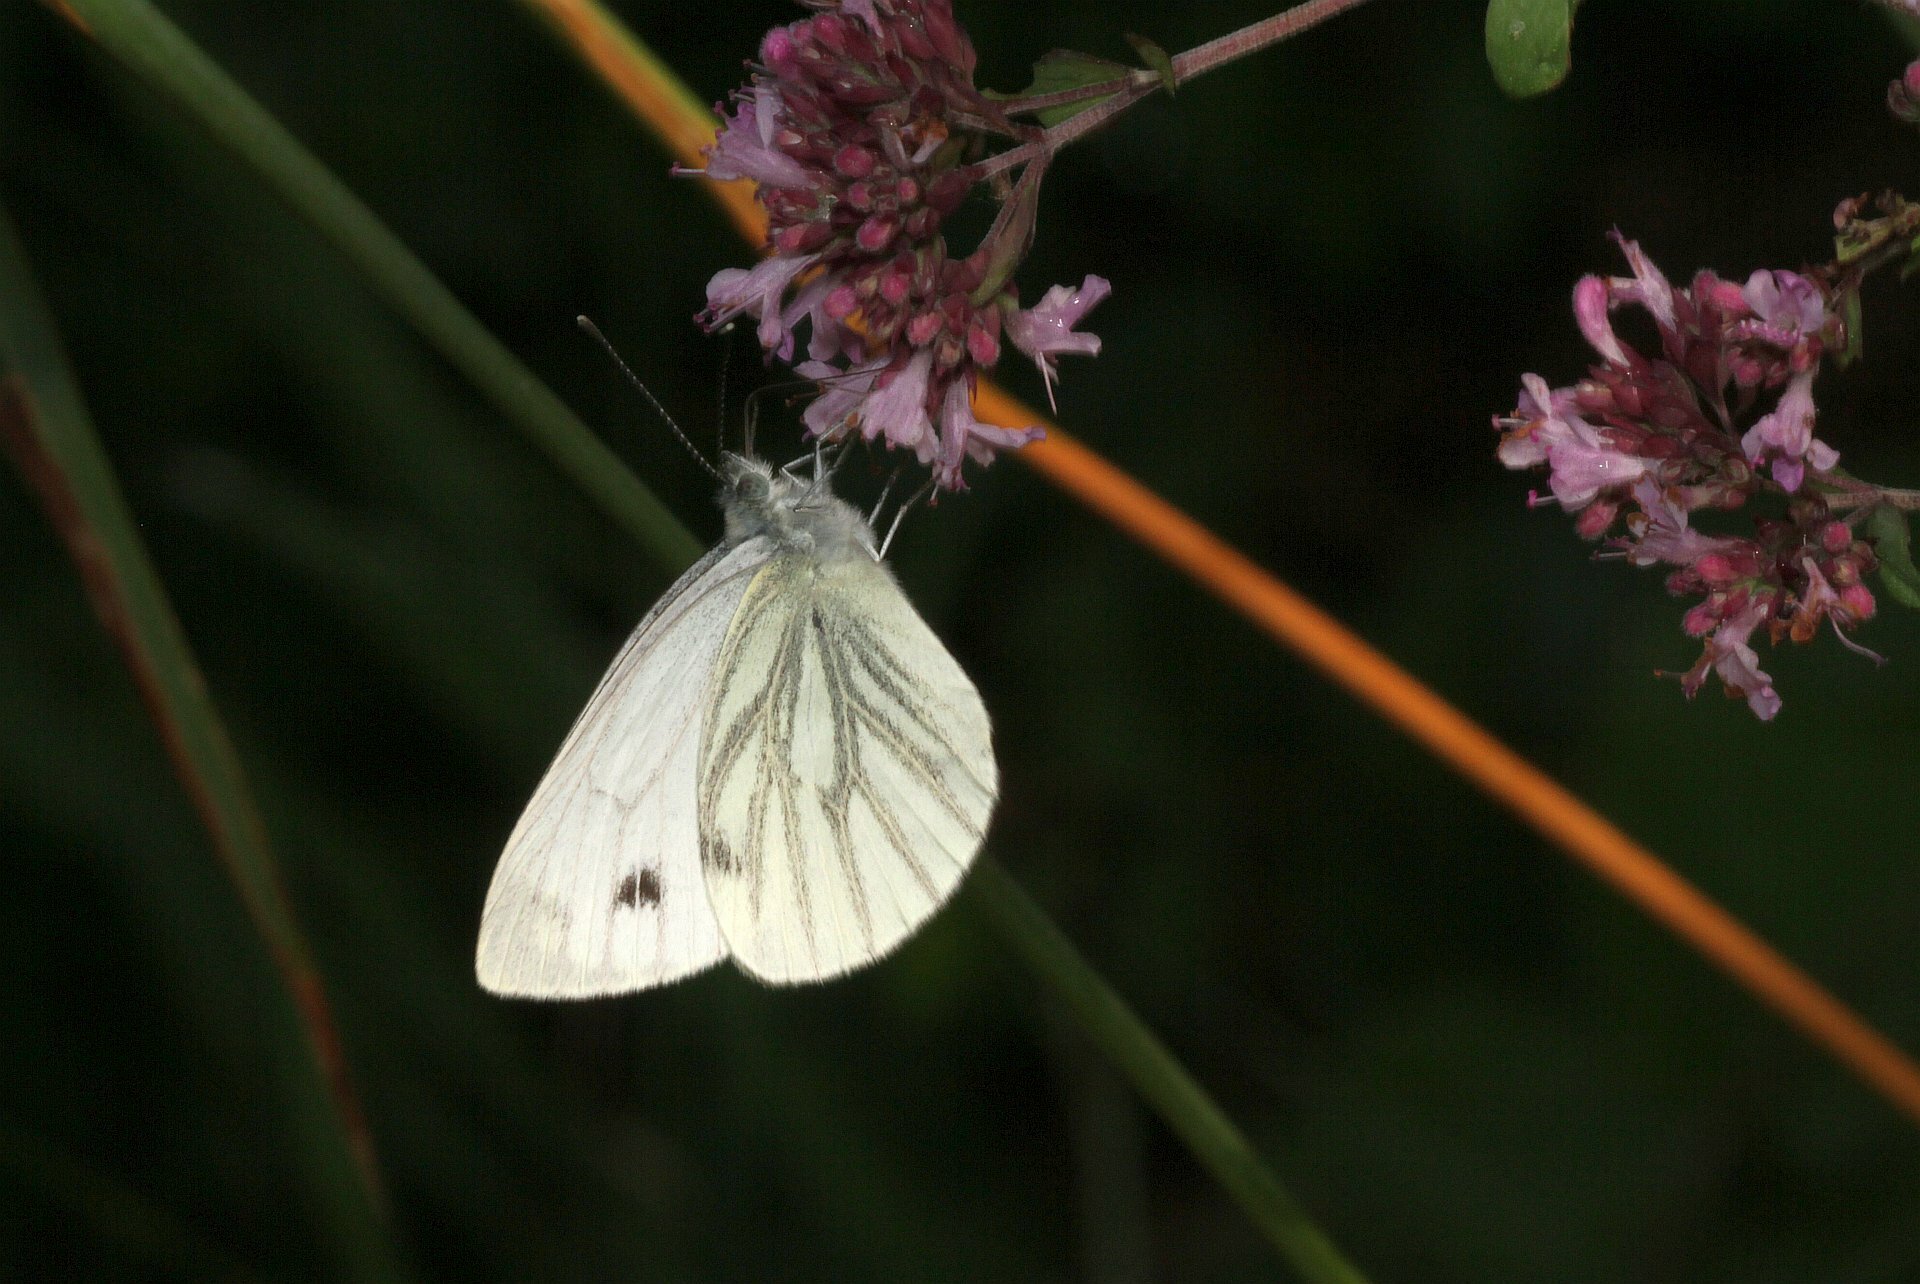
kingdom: Animalia
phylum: Arthropoda
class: Insecta
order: Lepidoptera
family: Pieridae
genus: Pieris
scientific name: Pieris napi
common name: Green-veined white
